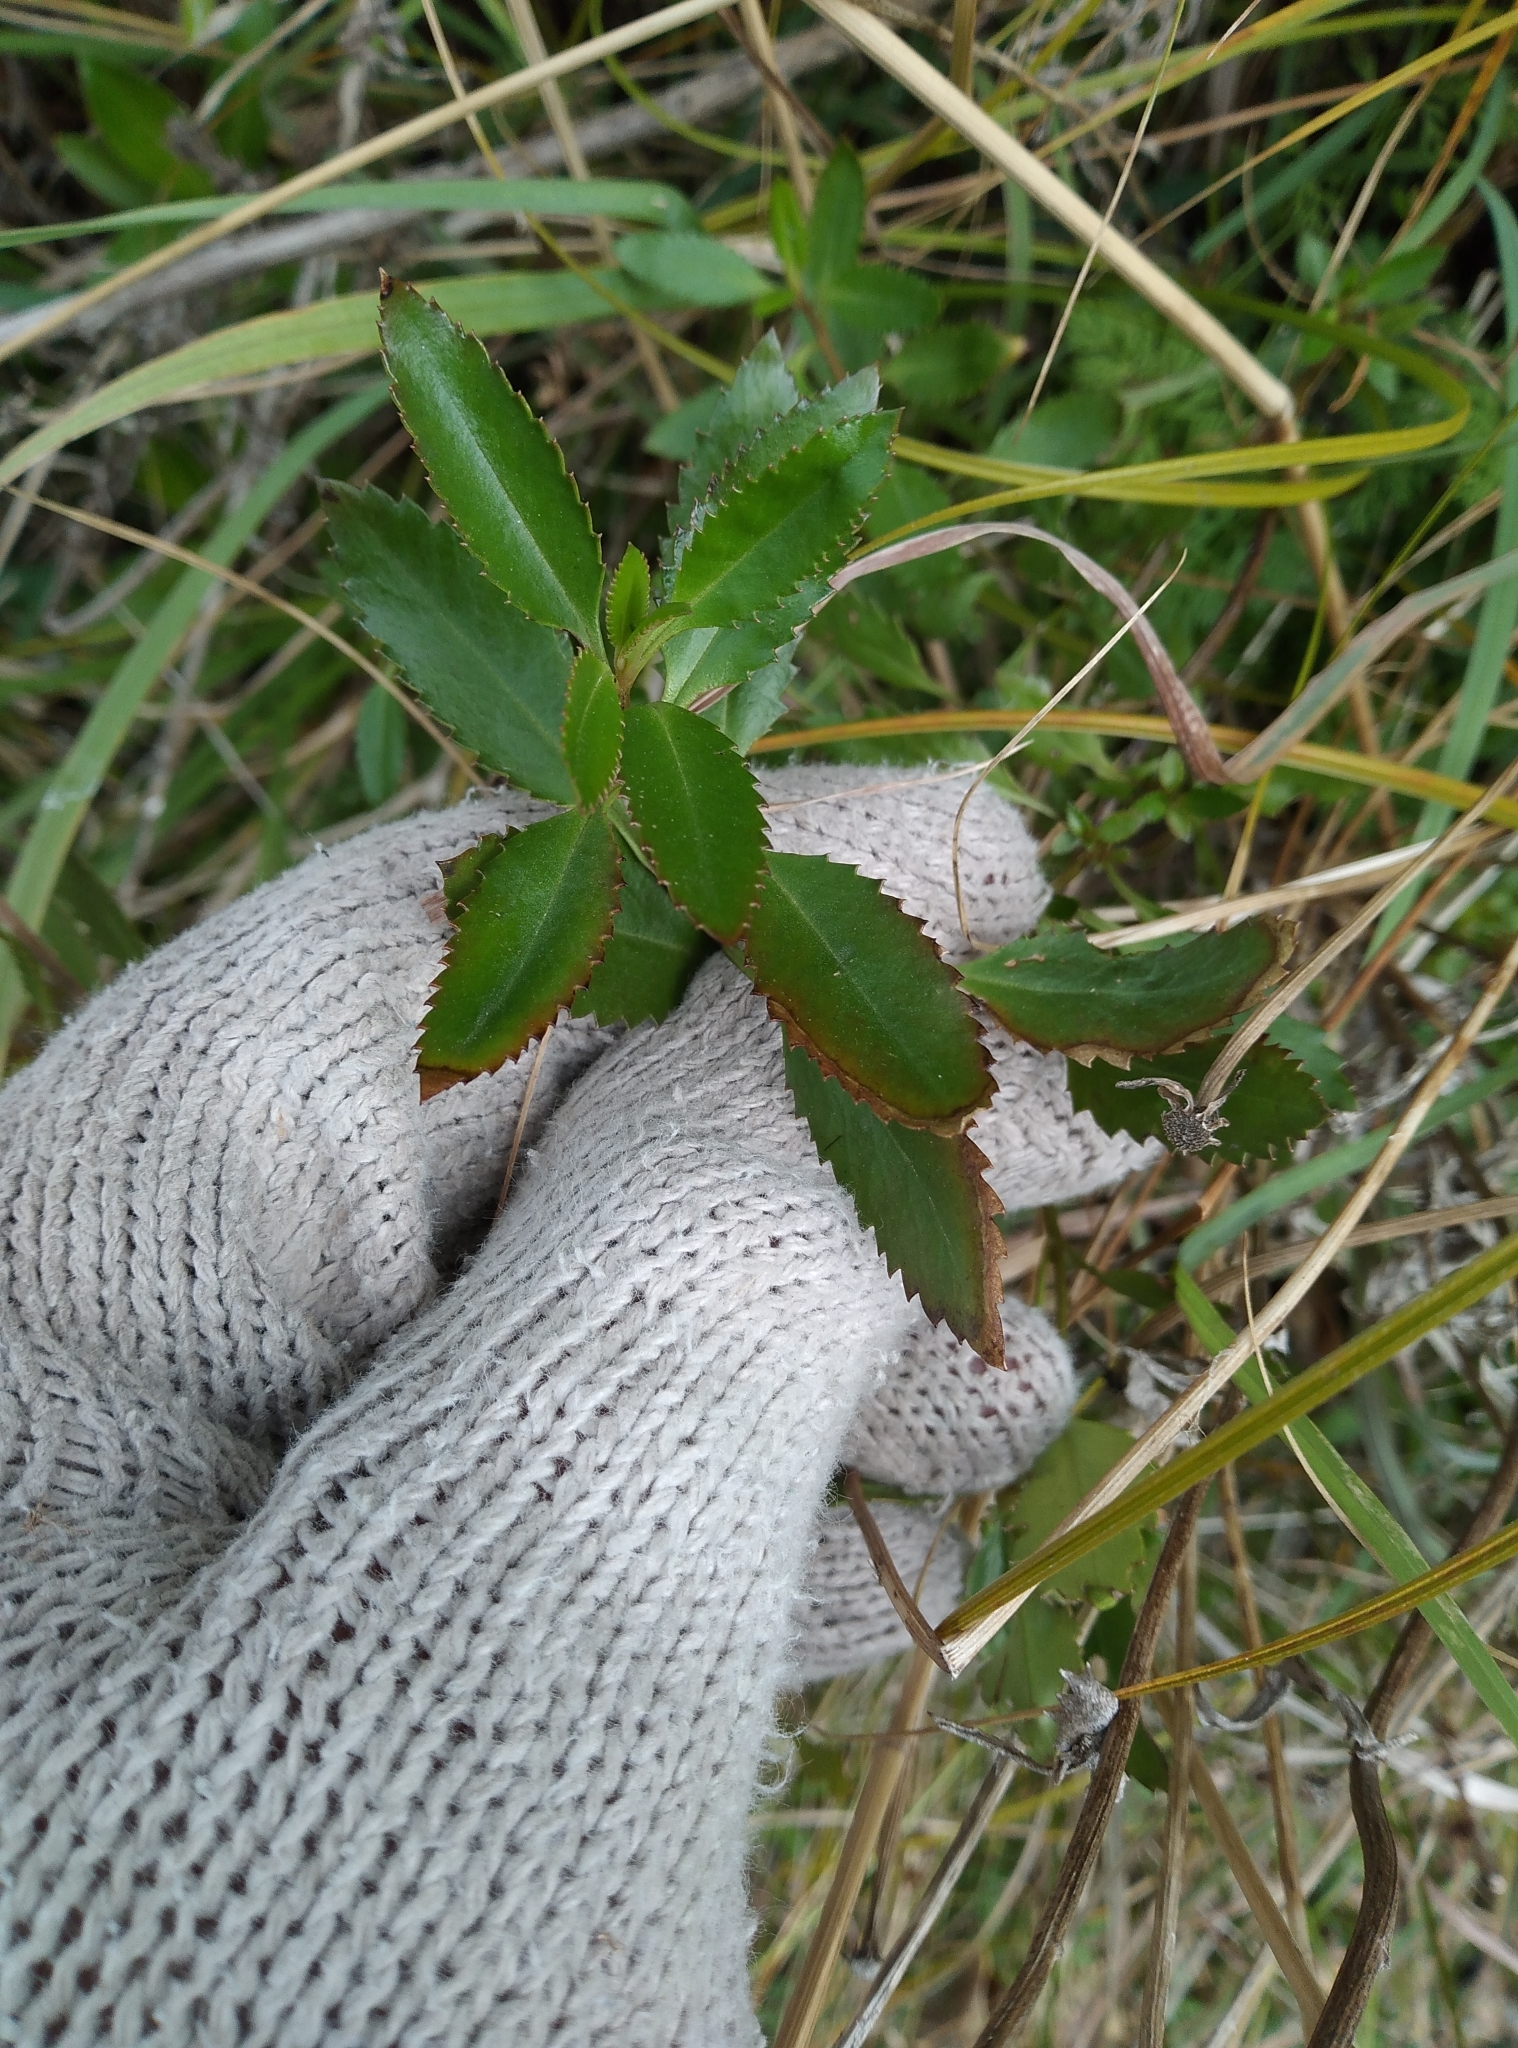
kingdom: Plantae
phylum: Tracheophyta
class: Magnoliopsida
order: Saxifragales
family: Haloragaceae
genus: Haloragis
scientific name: Haloragis erecta
